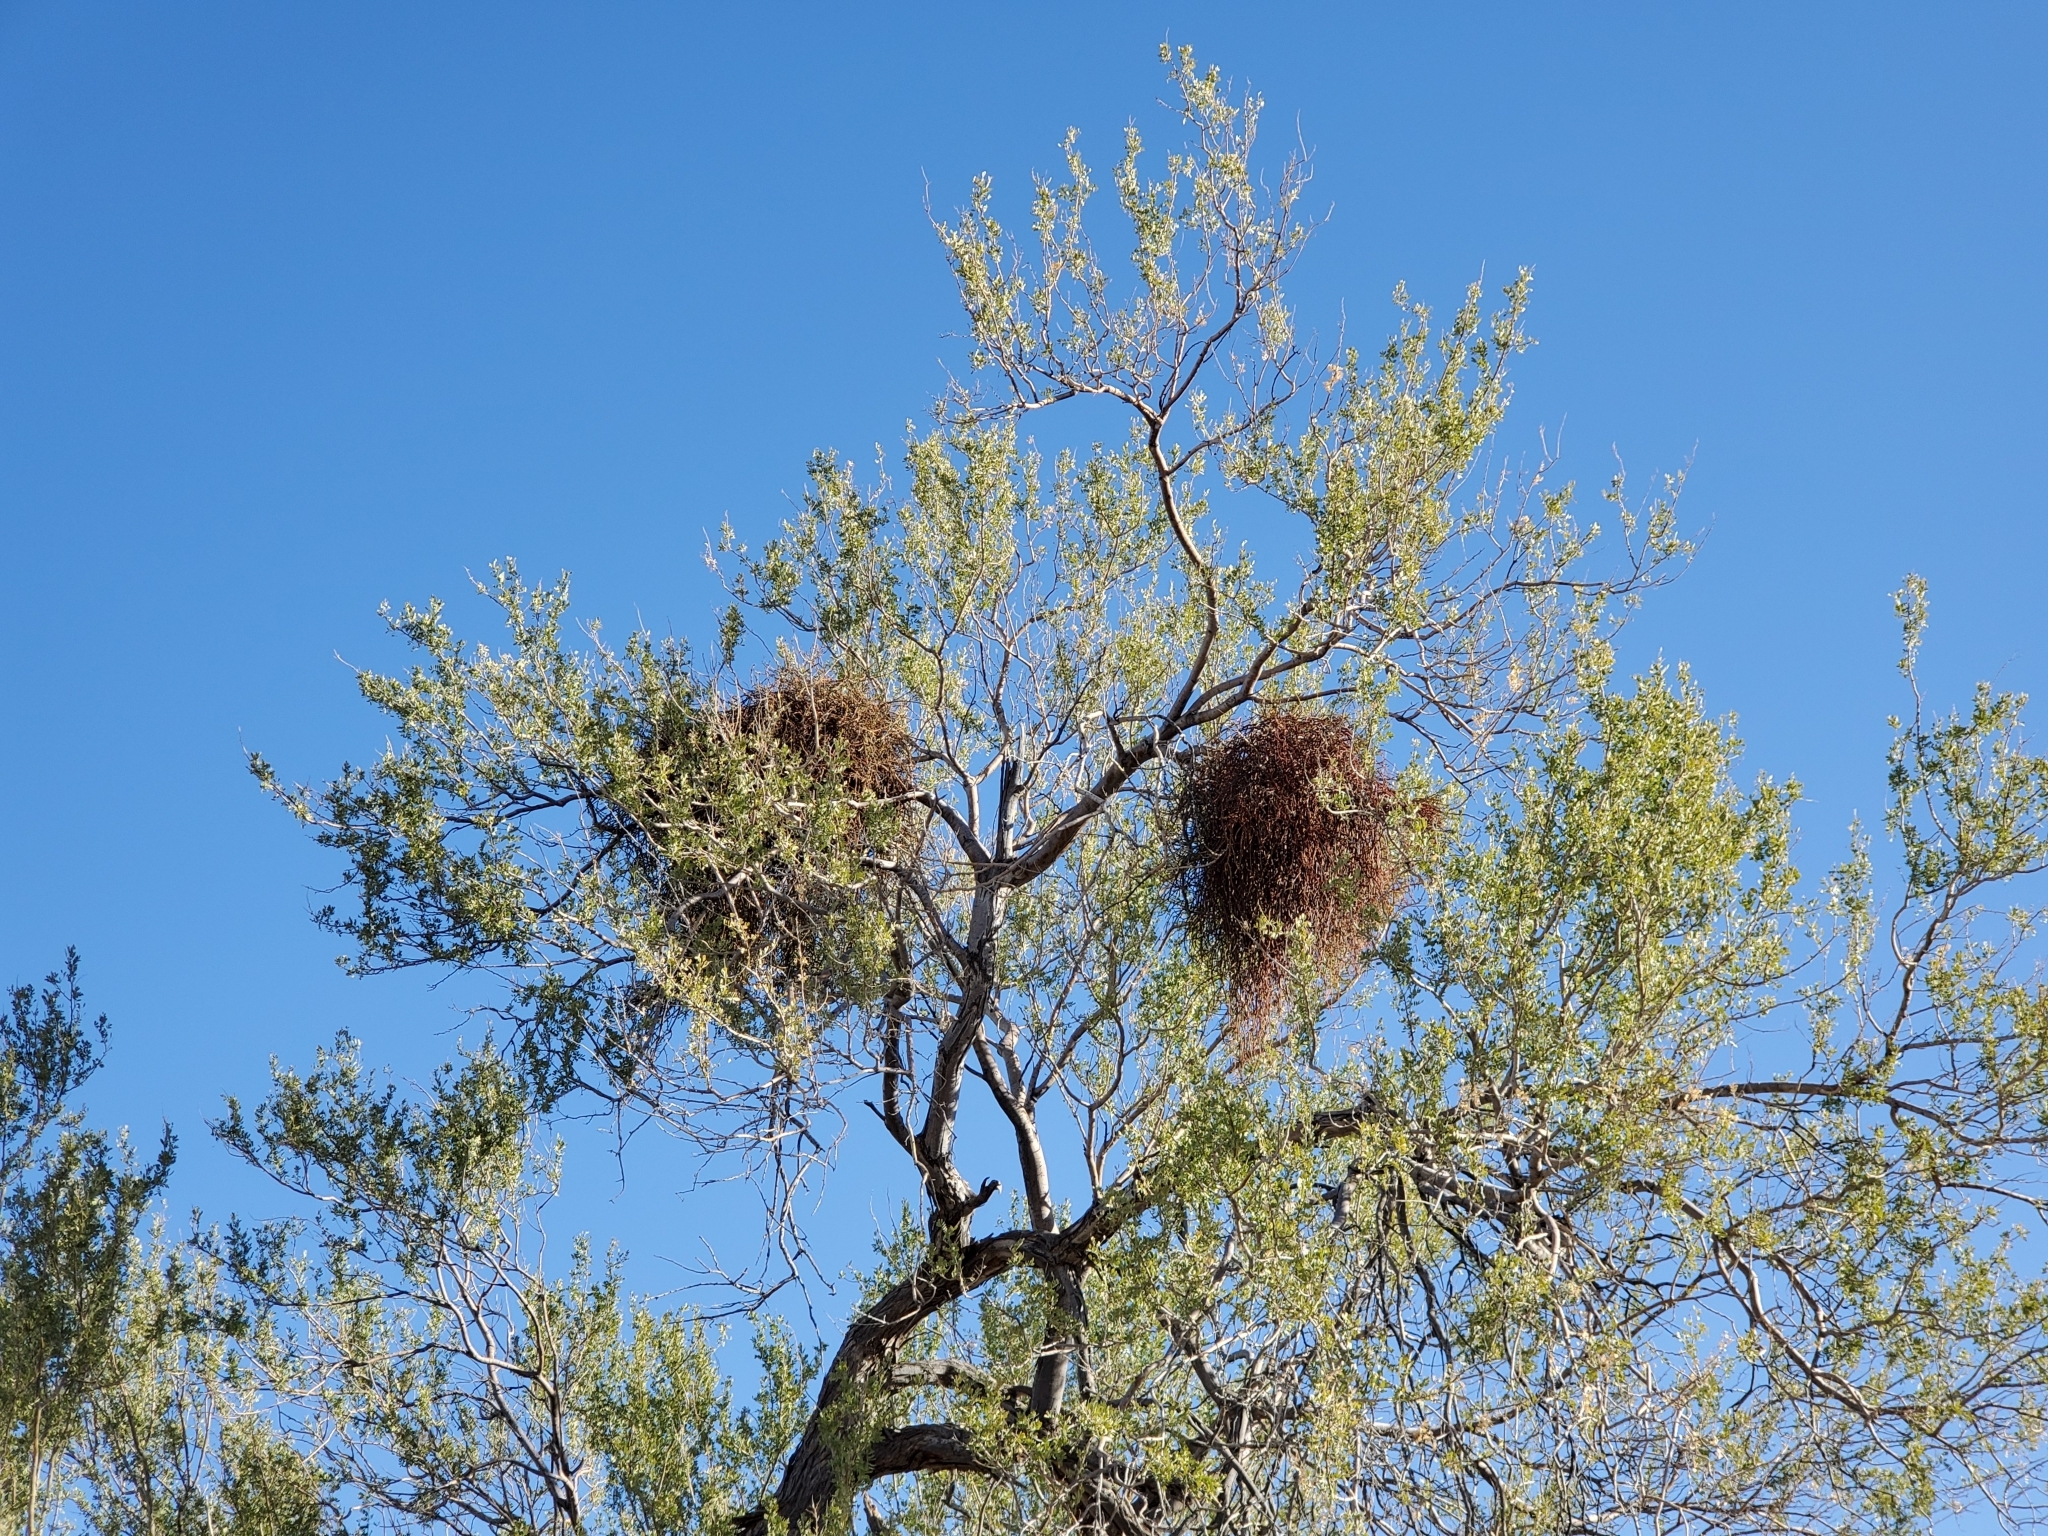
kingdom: Plantae
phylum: Tracheophyta
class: Magnoliopsida
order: Santalales
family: Viscaceae
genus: Phoradendron
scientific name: Phoradendron californicum
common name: Acacia mistletoe
